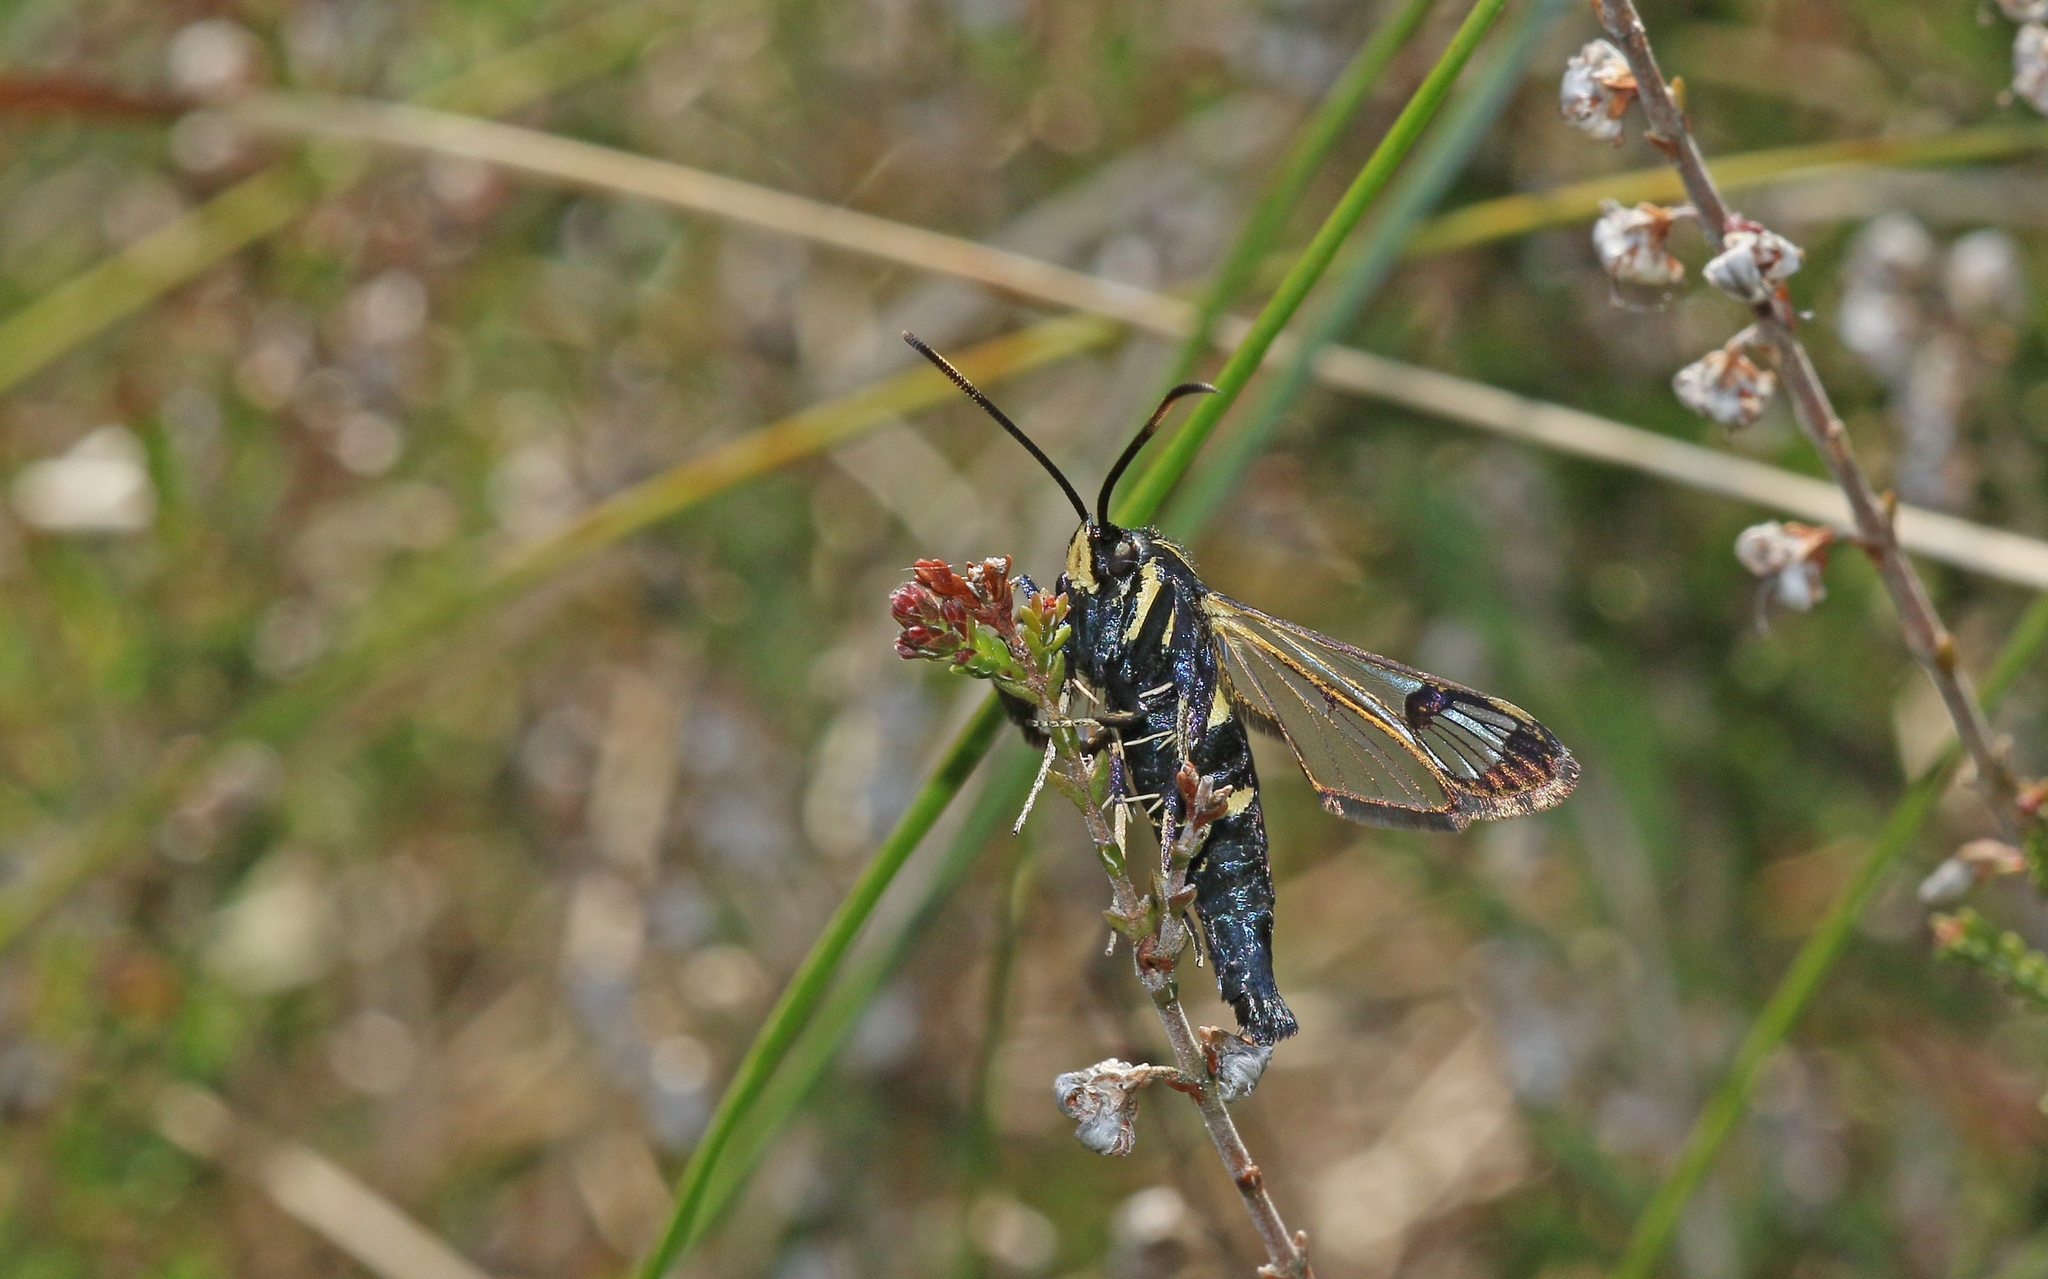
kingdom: Animalia
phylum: Arthropoda
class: Insecta
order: Lepidoptera
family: Sesiidae
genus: Synanthedon
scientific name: Synanthedon spheciformis
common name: White-barred clearwing
